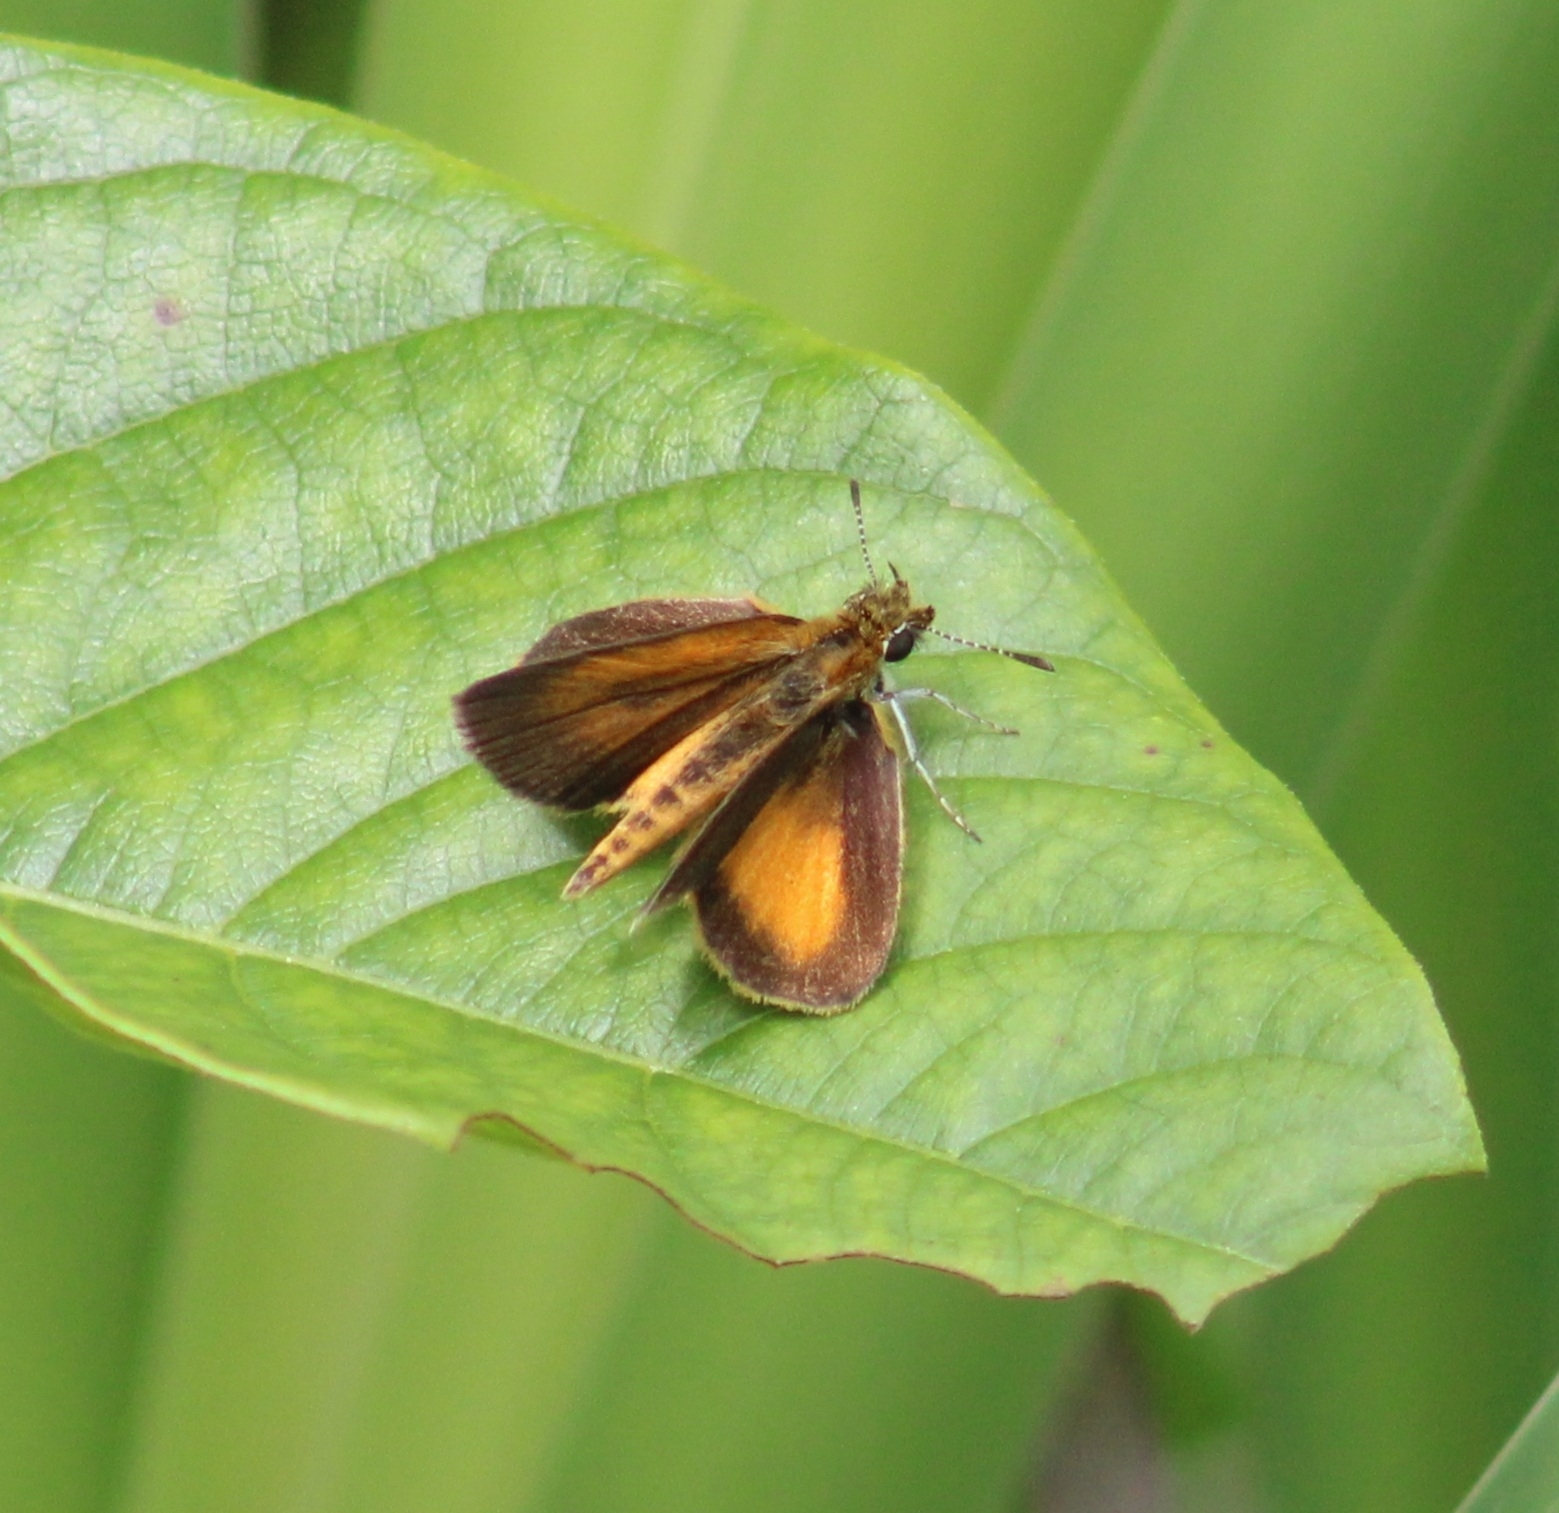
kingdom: Animalia
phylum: Arthropoda
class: Insecta
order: Lepidoptera
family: Hesperiidae
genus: Ancyloxypha
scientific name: Ancyloxypha numitor
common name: Least skipper
